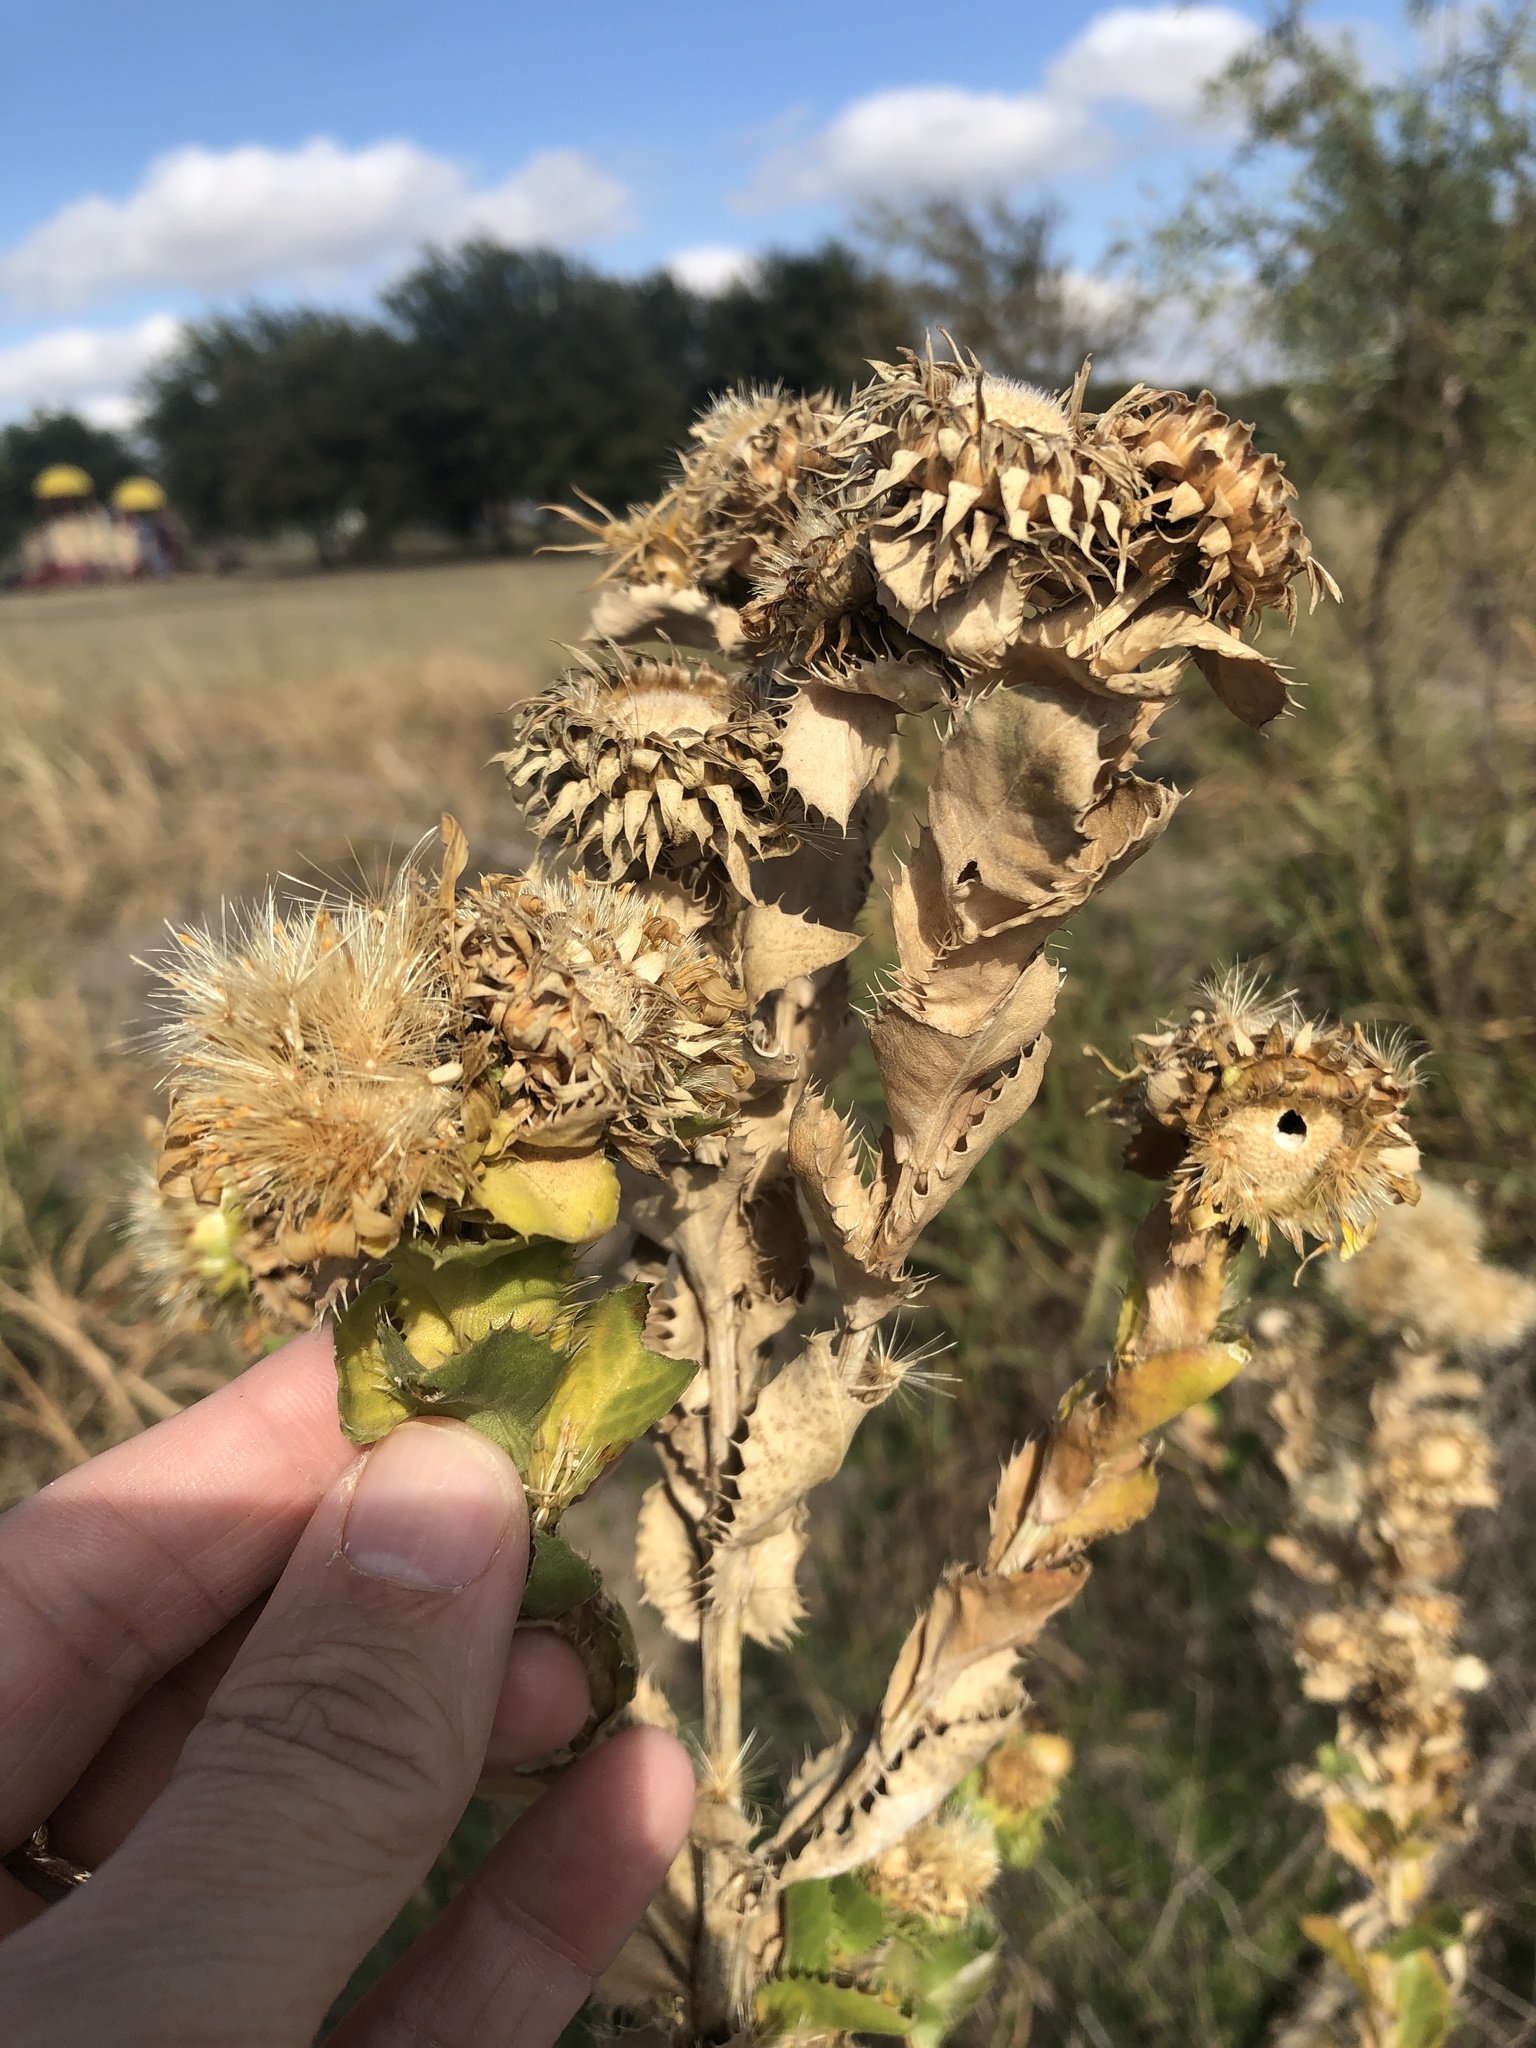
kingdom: Plantae
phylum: Tracheophyta
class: Magnoliopsida
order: Asterales
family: Asteraceae
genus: Grindelia
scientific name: Grindelia ciliata
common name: Goldenweed
